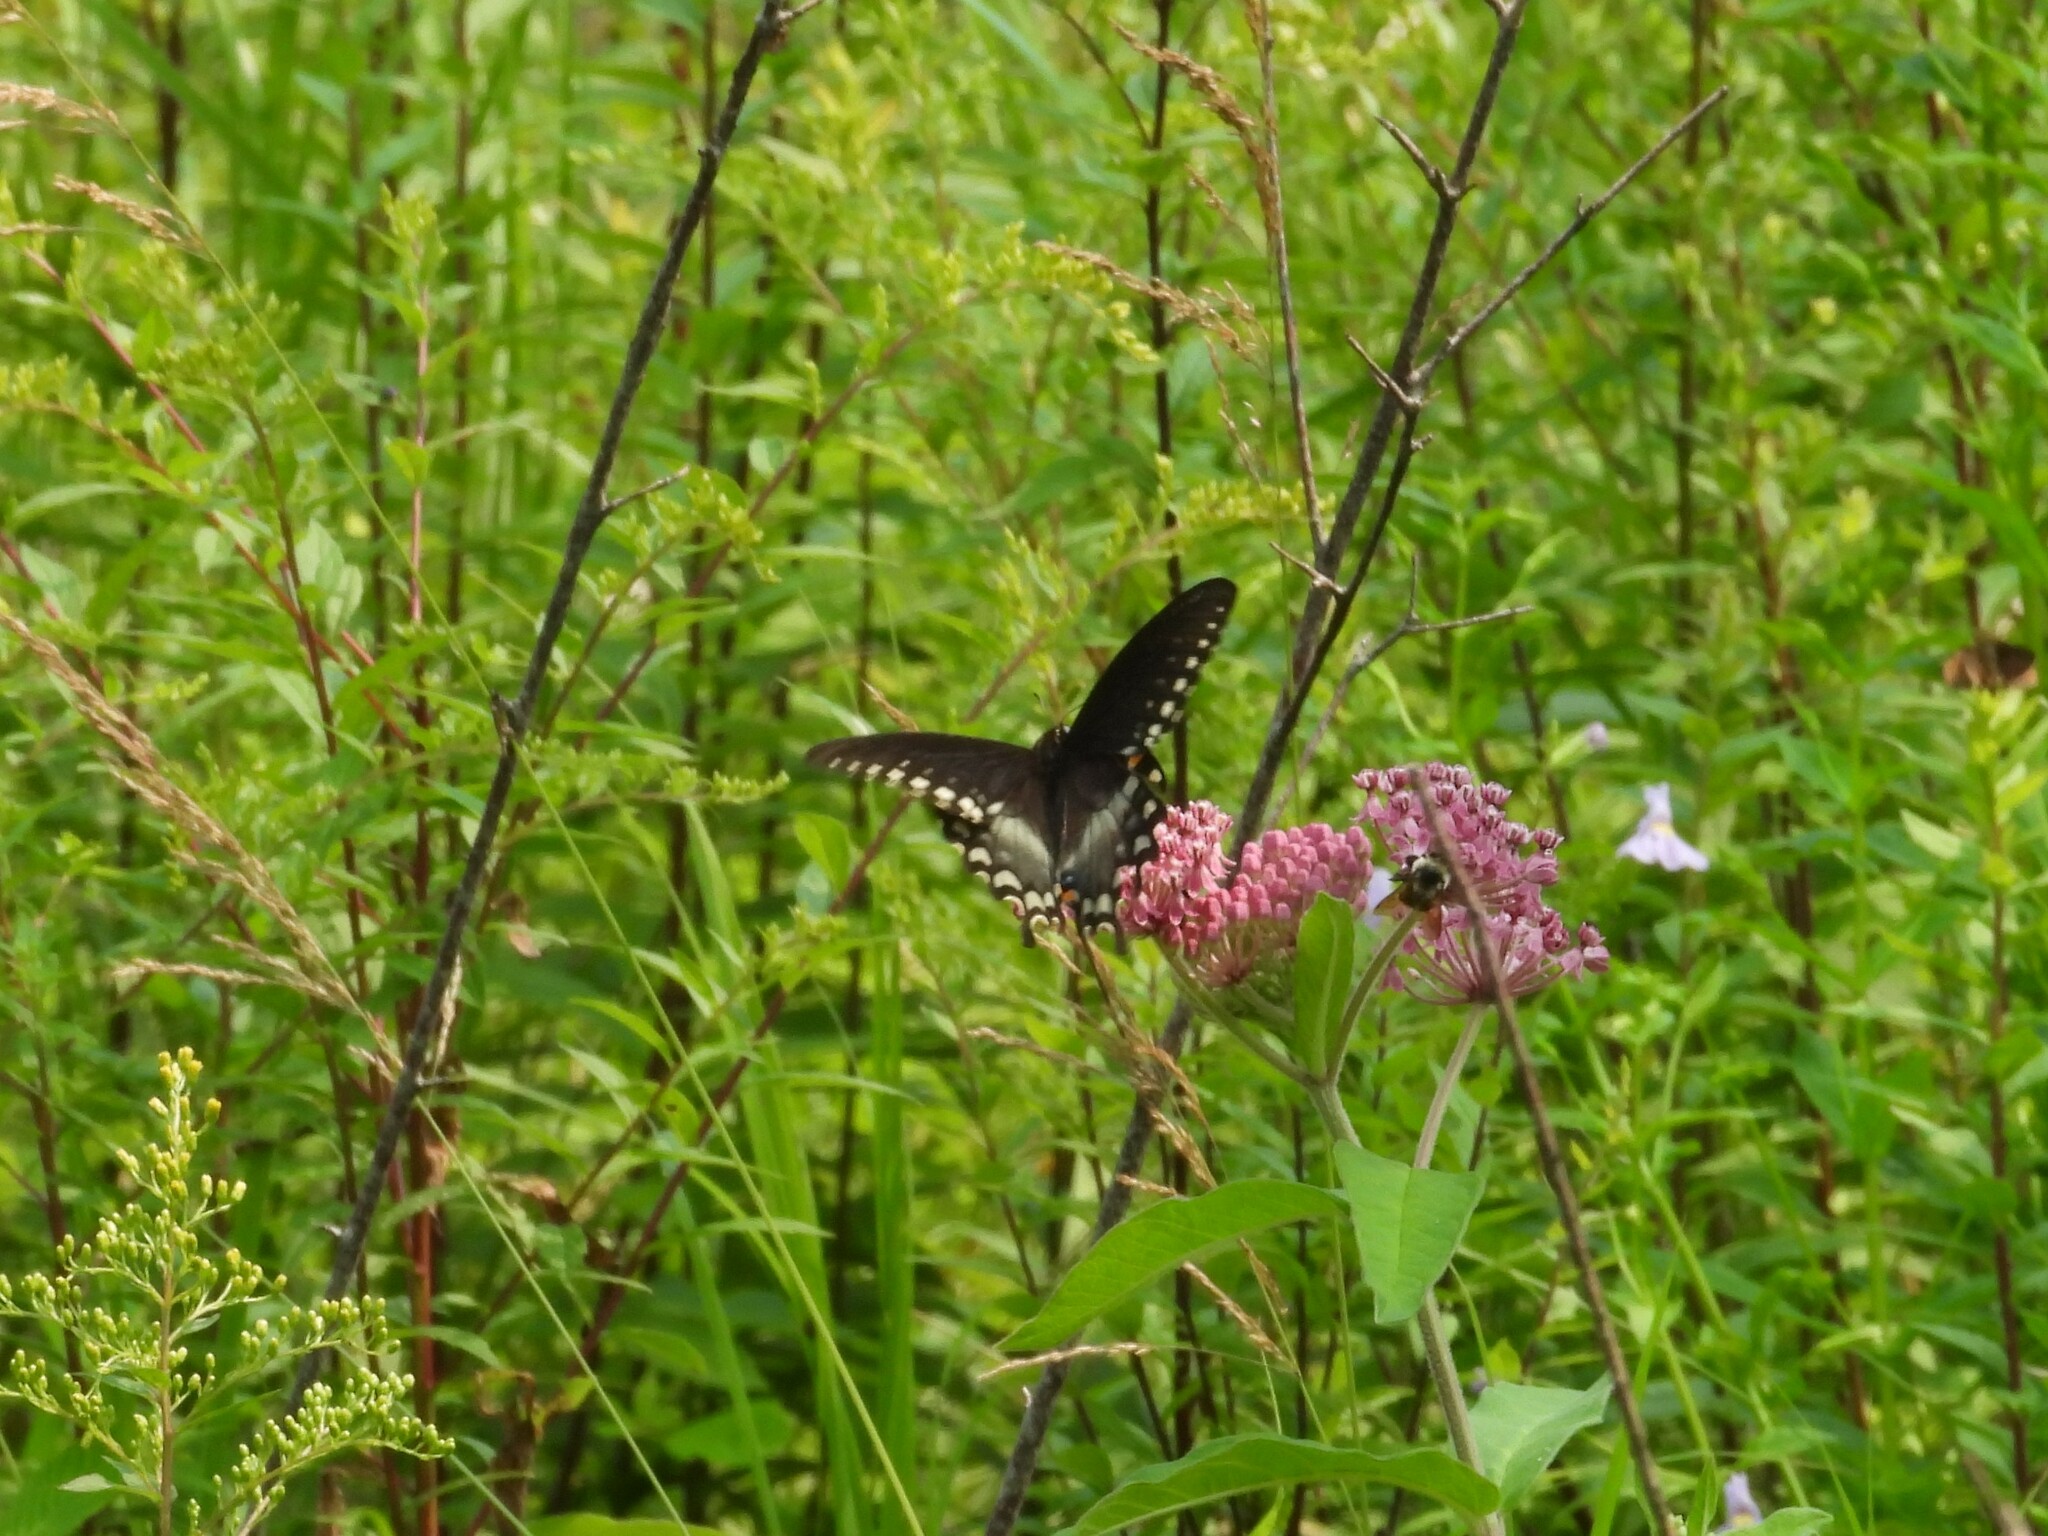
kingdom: Animalia
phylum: Arthropoda
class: Insecta
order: Lepidoptera
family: Papilionidae
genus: Papilio
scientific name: Papilio troilus
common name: Spicebush swallowtail
